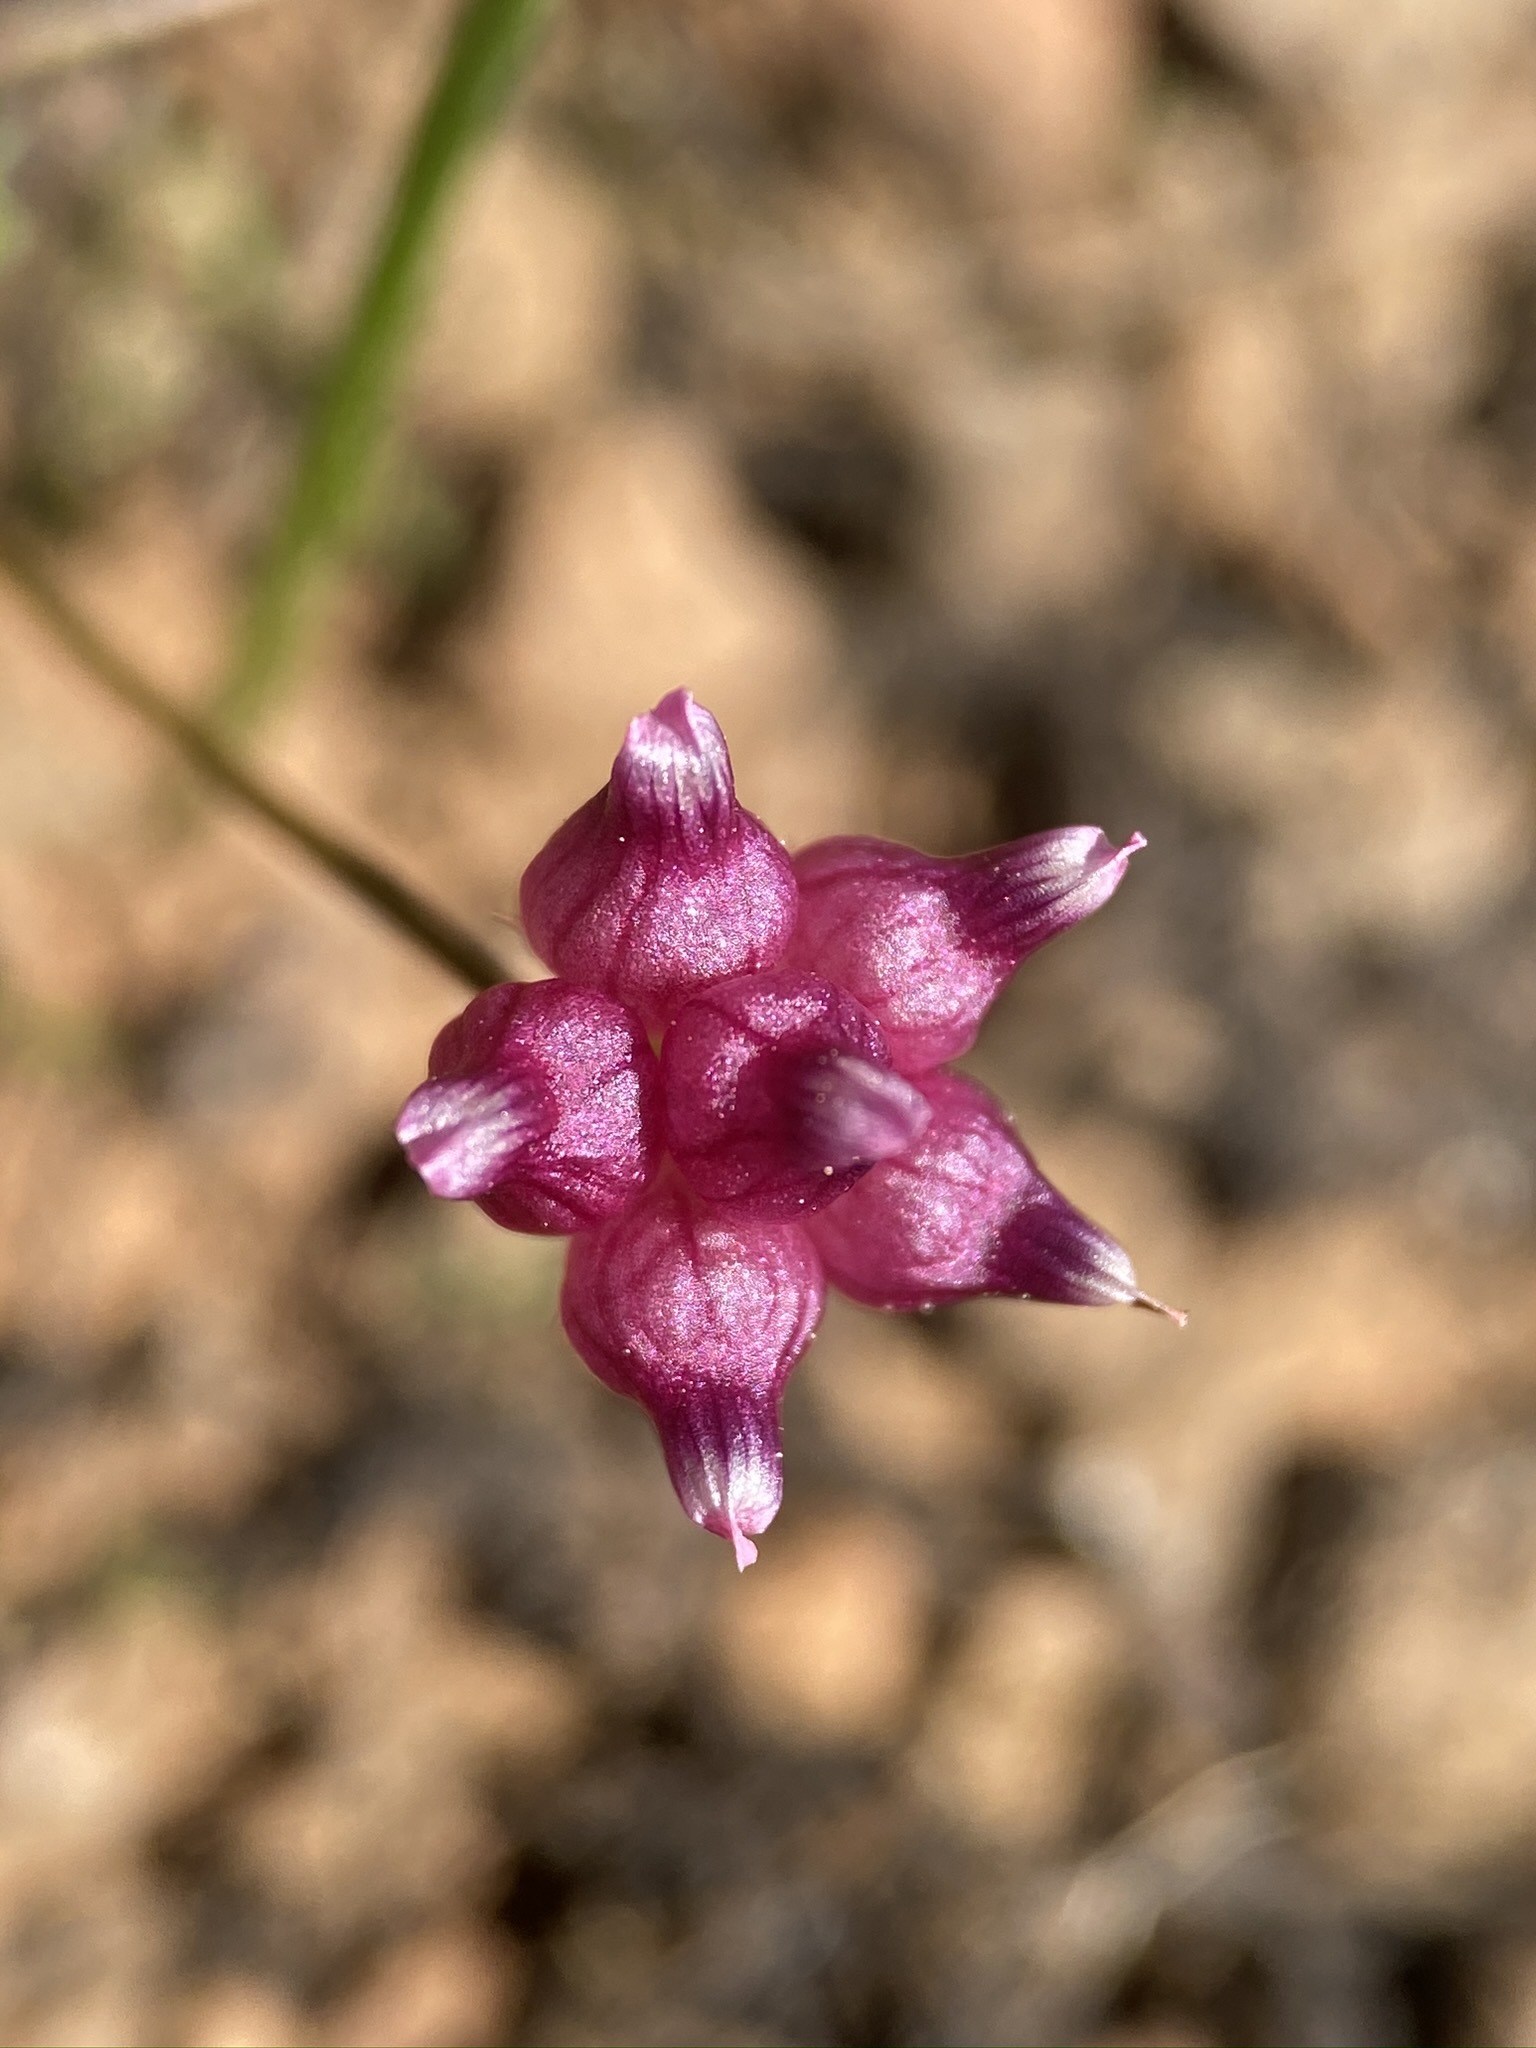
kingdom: Plantae
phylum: Tracheophyta
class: Magnoliopsida
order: Fabales
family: Fabaceae
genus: Trifolium
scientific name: Trifolium depauperatum
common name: Poverty clover
